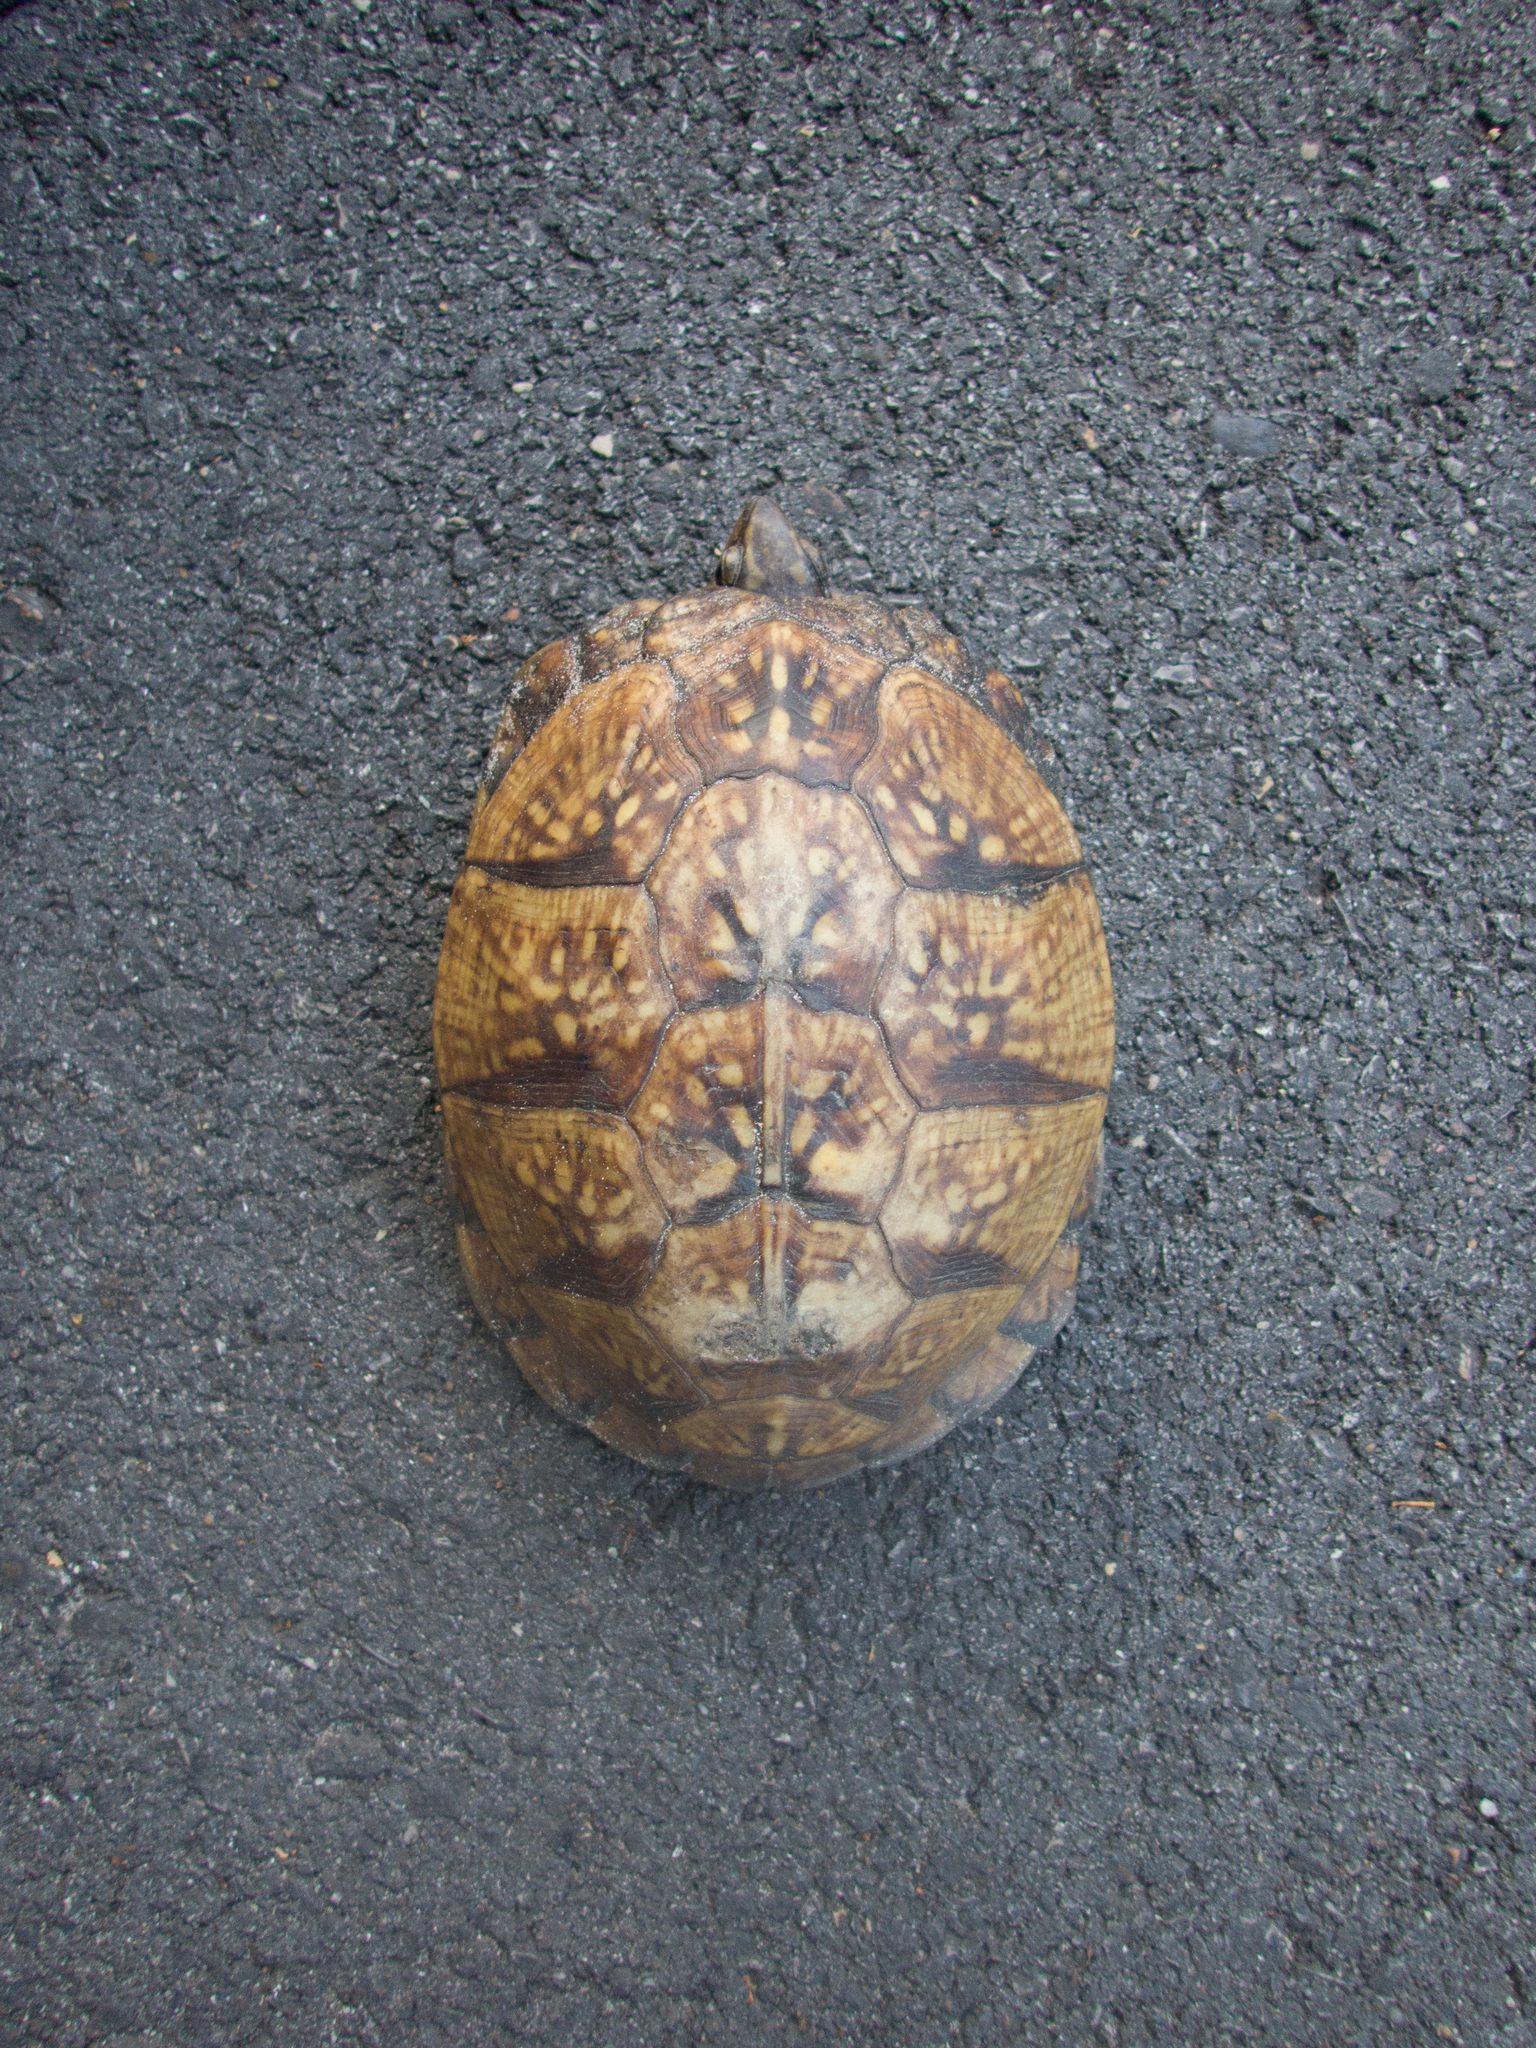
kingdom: Animalia
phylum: Chordata
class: Testudines
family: Emydidae
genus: Terrapene
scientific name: Terrapene carolina
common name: Common box turtle
